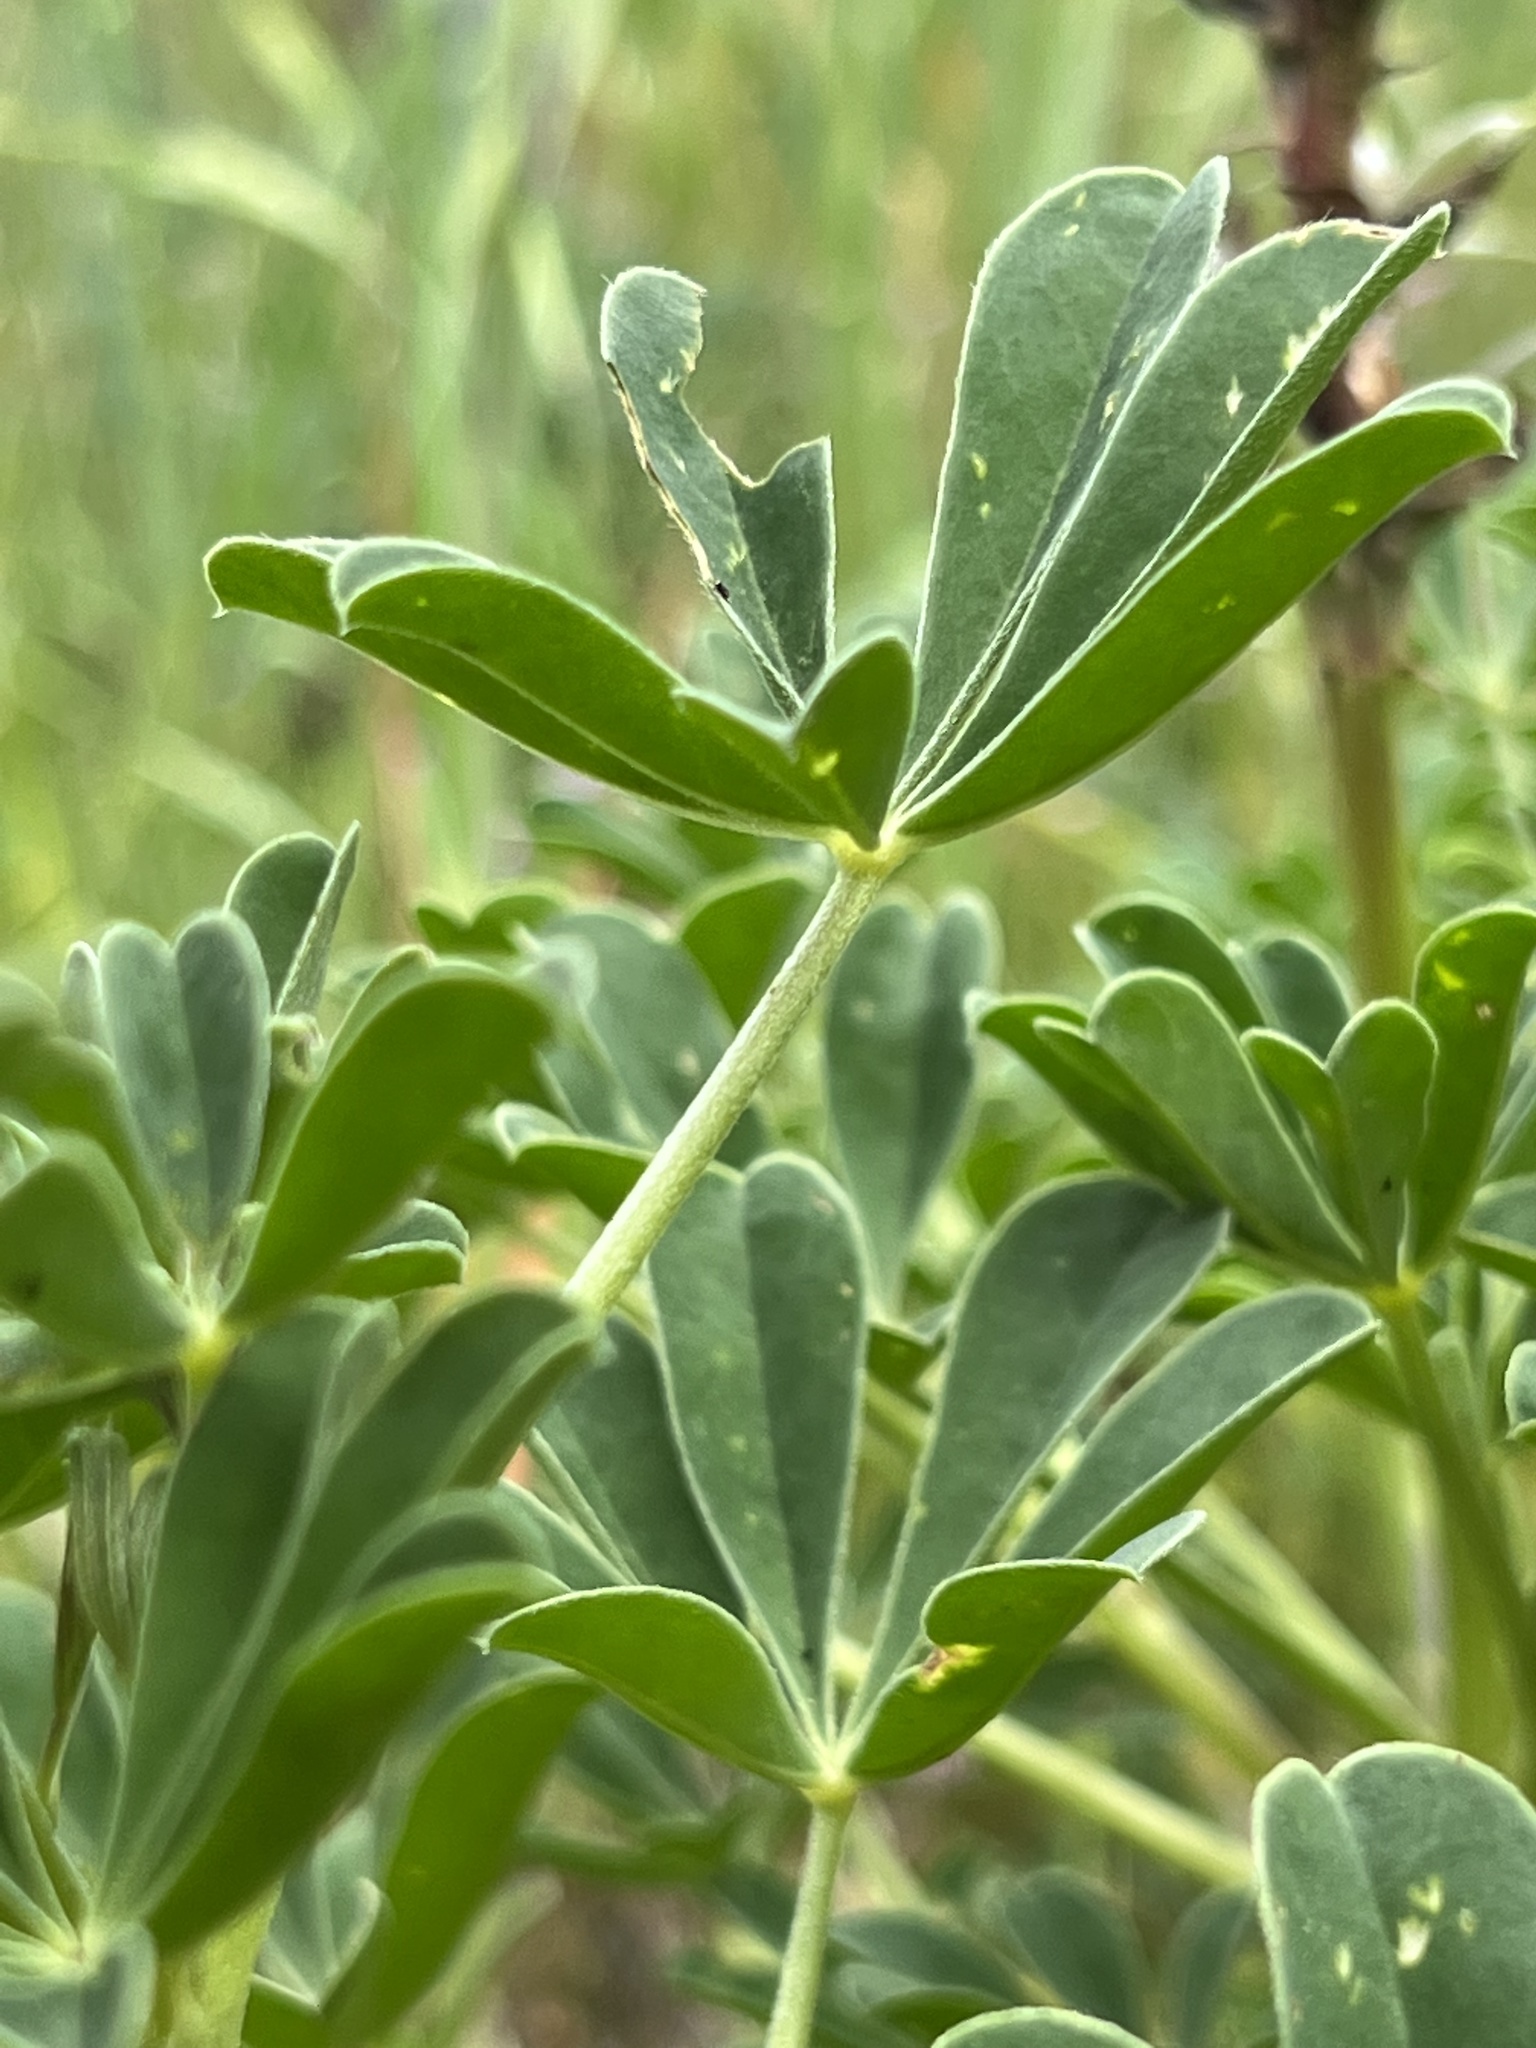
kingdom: Plantae
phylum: Tracheophyta
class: Magnoliopsida
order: Fabales
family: Fabaceae
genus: Lupinus
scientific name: Lupinus succulentus
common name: Arroyo lupine
